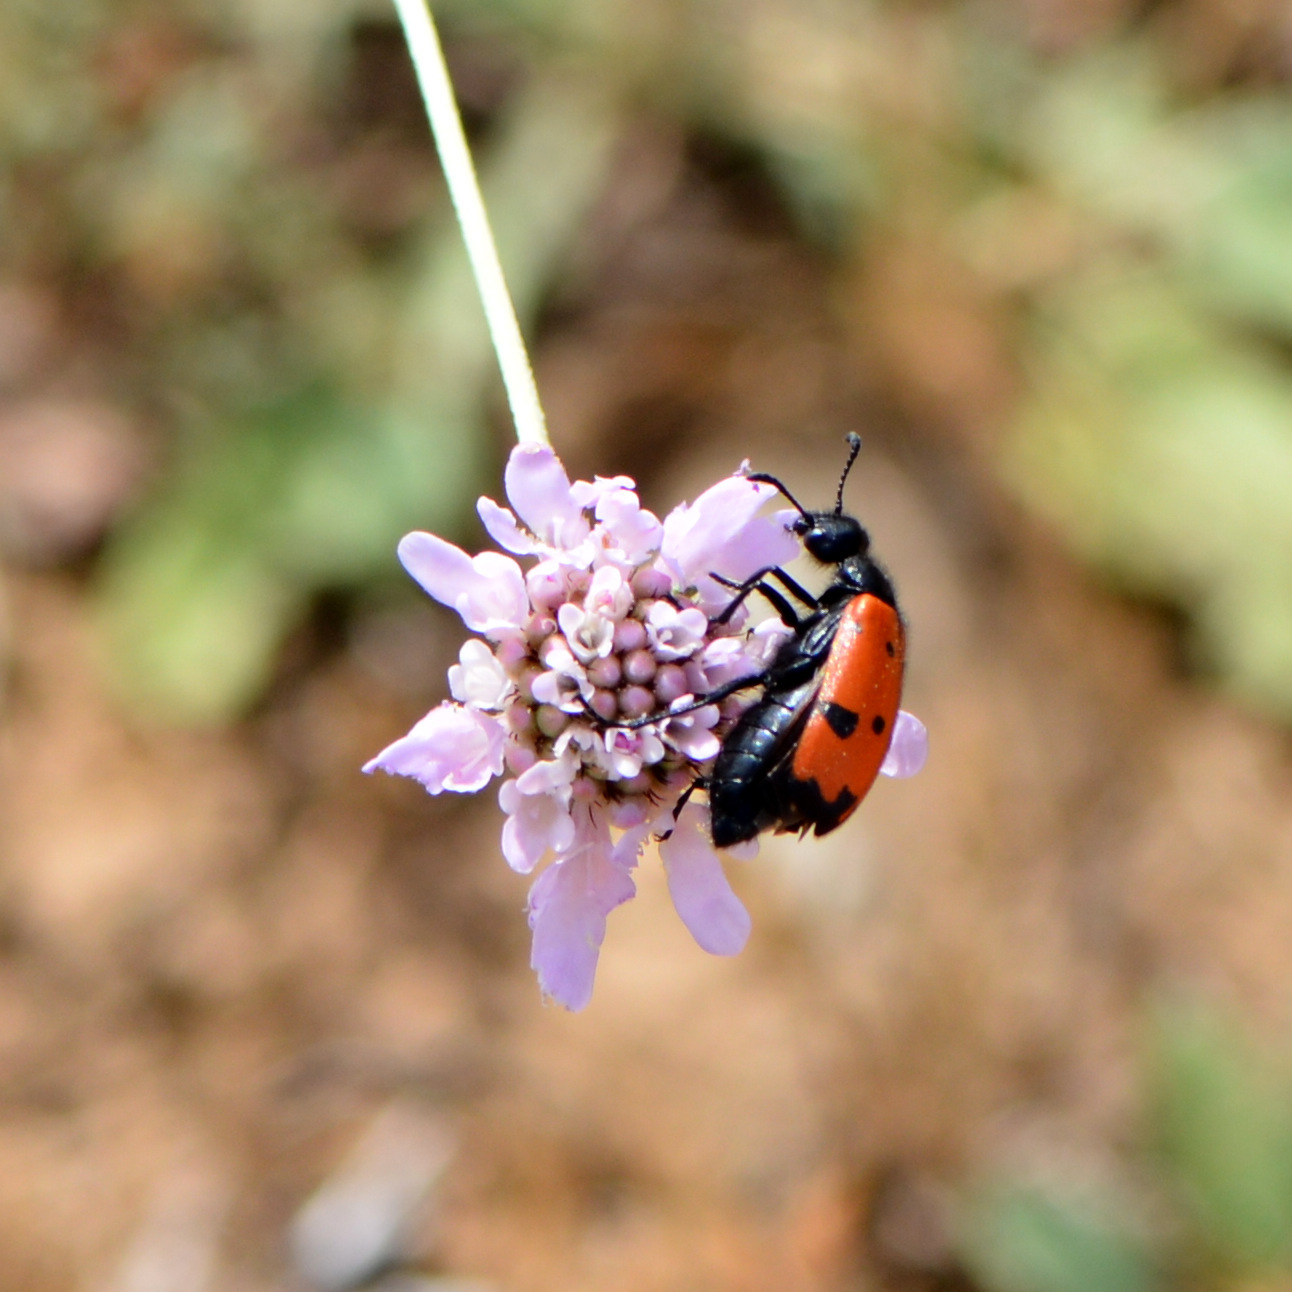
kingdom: Animalia
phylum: Arthropoda
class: Insecta
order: Coleoptera
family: Meloidae
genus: Mylabris
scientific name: Mylabris quadripunctata
